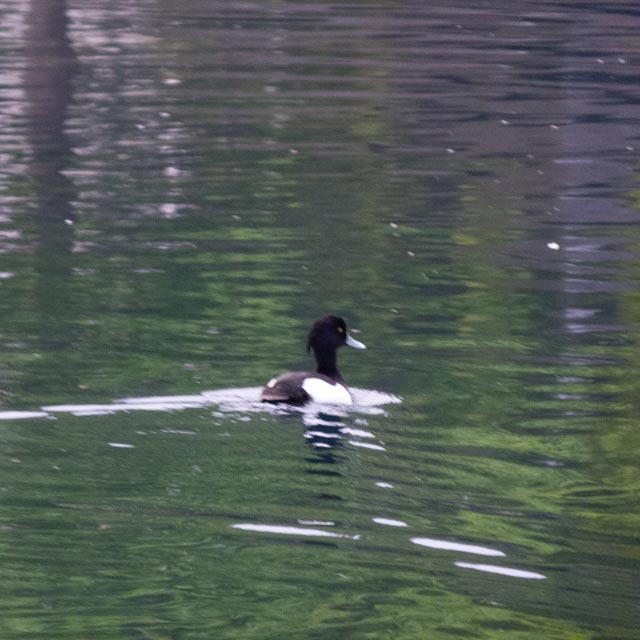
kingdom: Animalia
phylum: Chordata
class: Aves
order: Anseriformes
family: Anatidae
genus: Aythya
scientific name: Aythya fuligula
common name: Tufted duck
